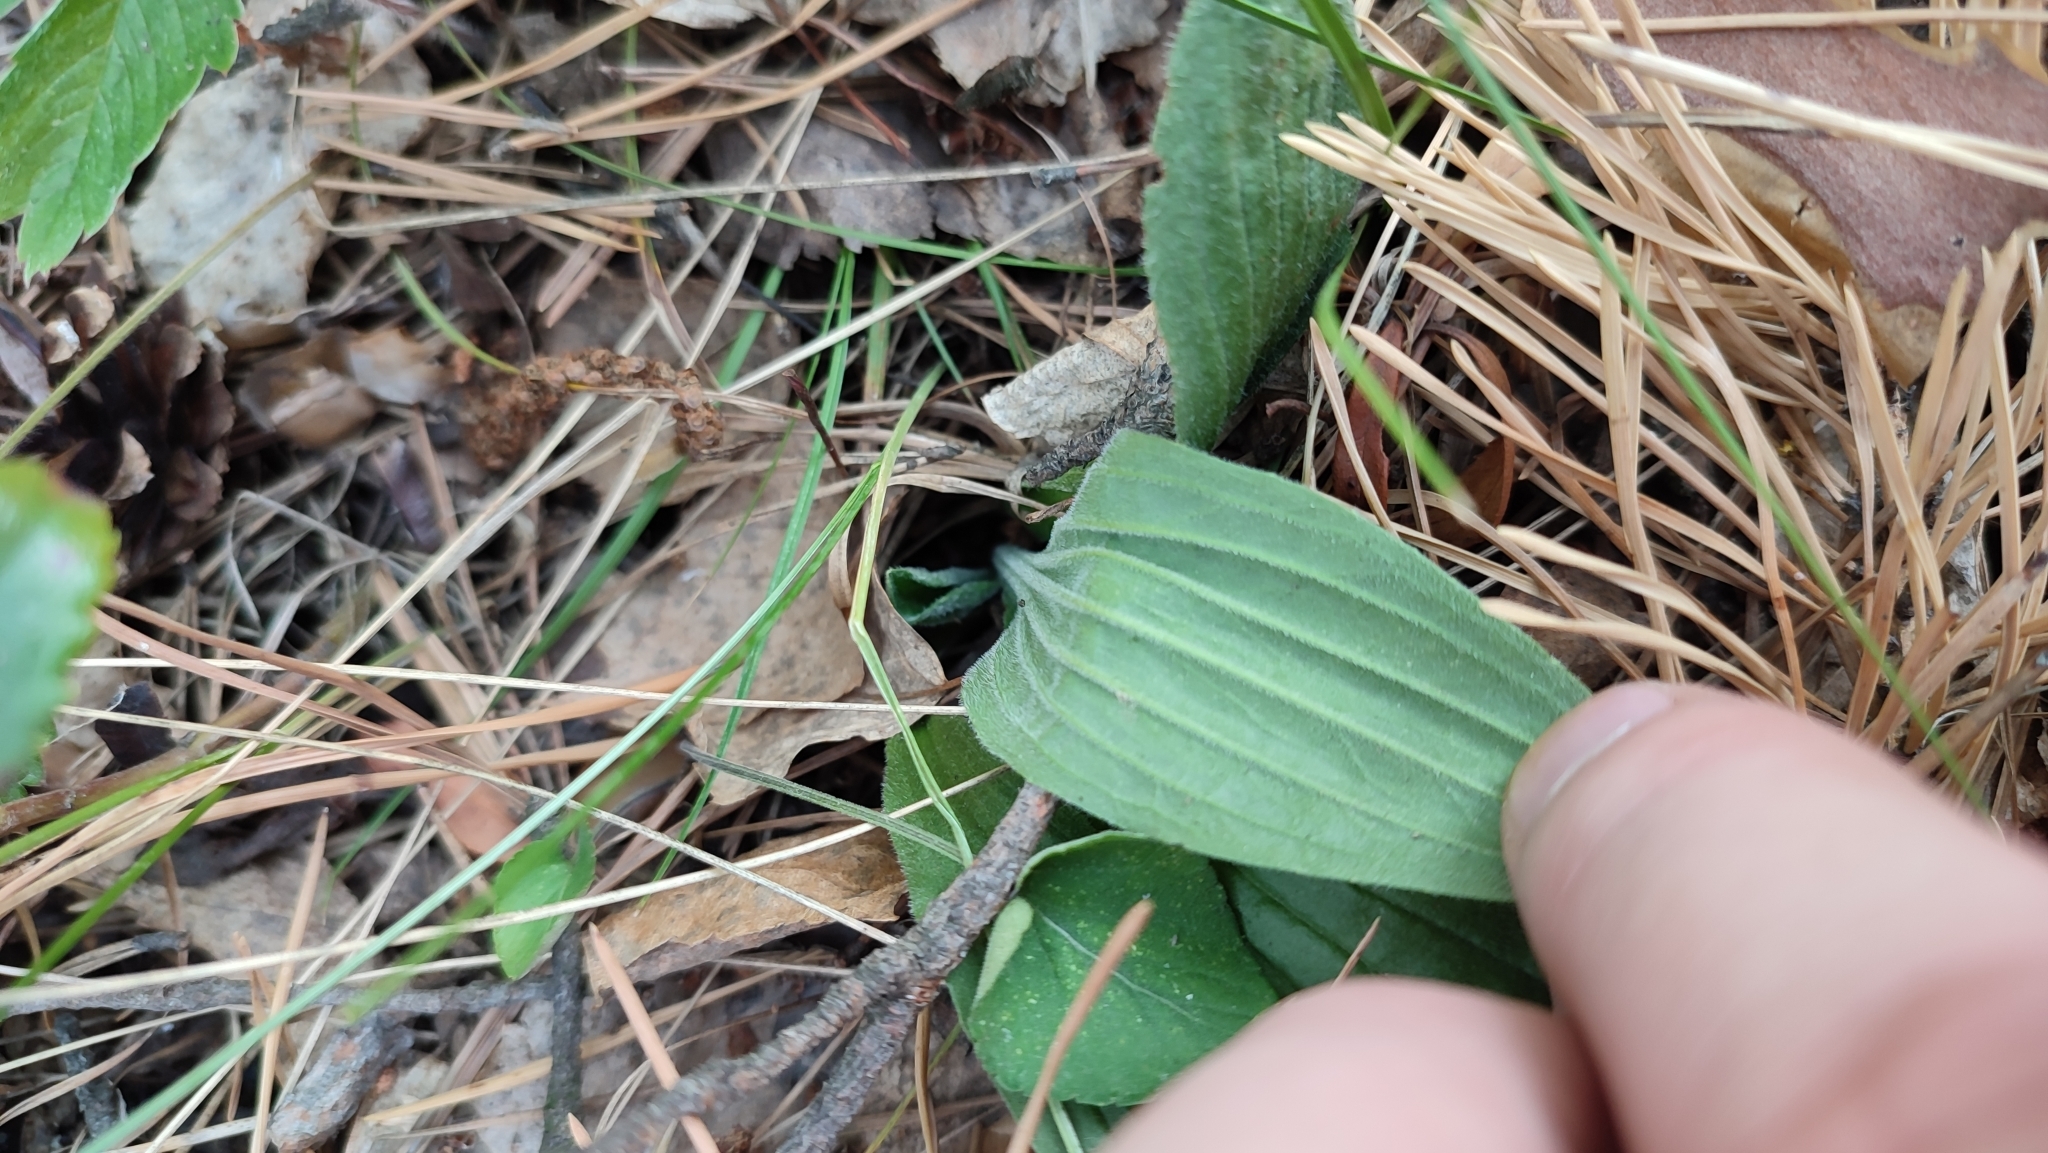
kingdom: Plantae
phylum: Tracheophyta
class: Magnoliopsida
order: Lamiales
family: Plantaginaceae
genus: Plantago
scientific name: Plantago media
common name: Hoary plantain
